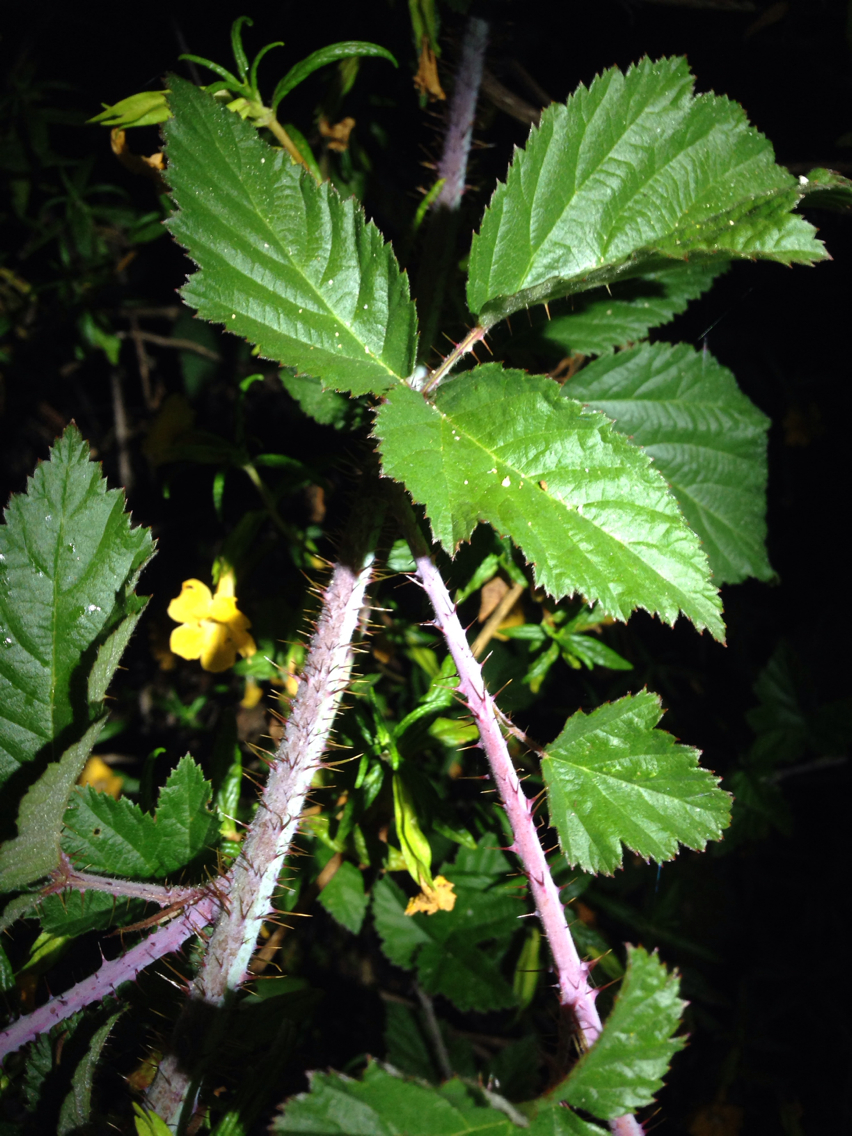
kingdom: Plantae
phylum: Tracheophyta
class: Magnoliopsida
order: Rosales
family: Rosaceae
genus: Rubus
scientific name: Rubus ursinus
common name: Pacific blackberry
